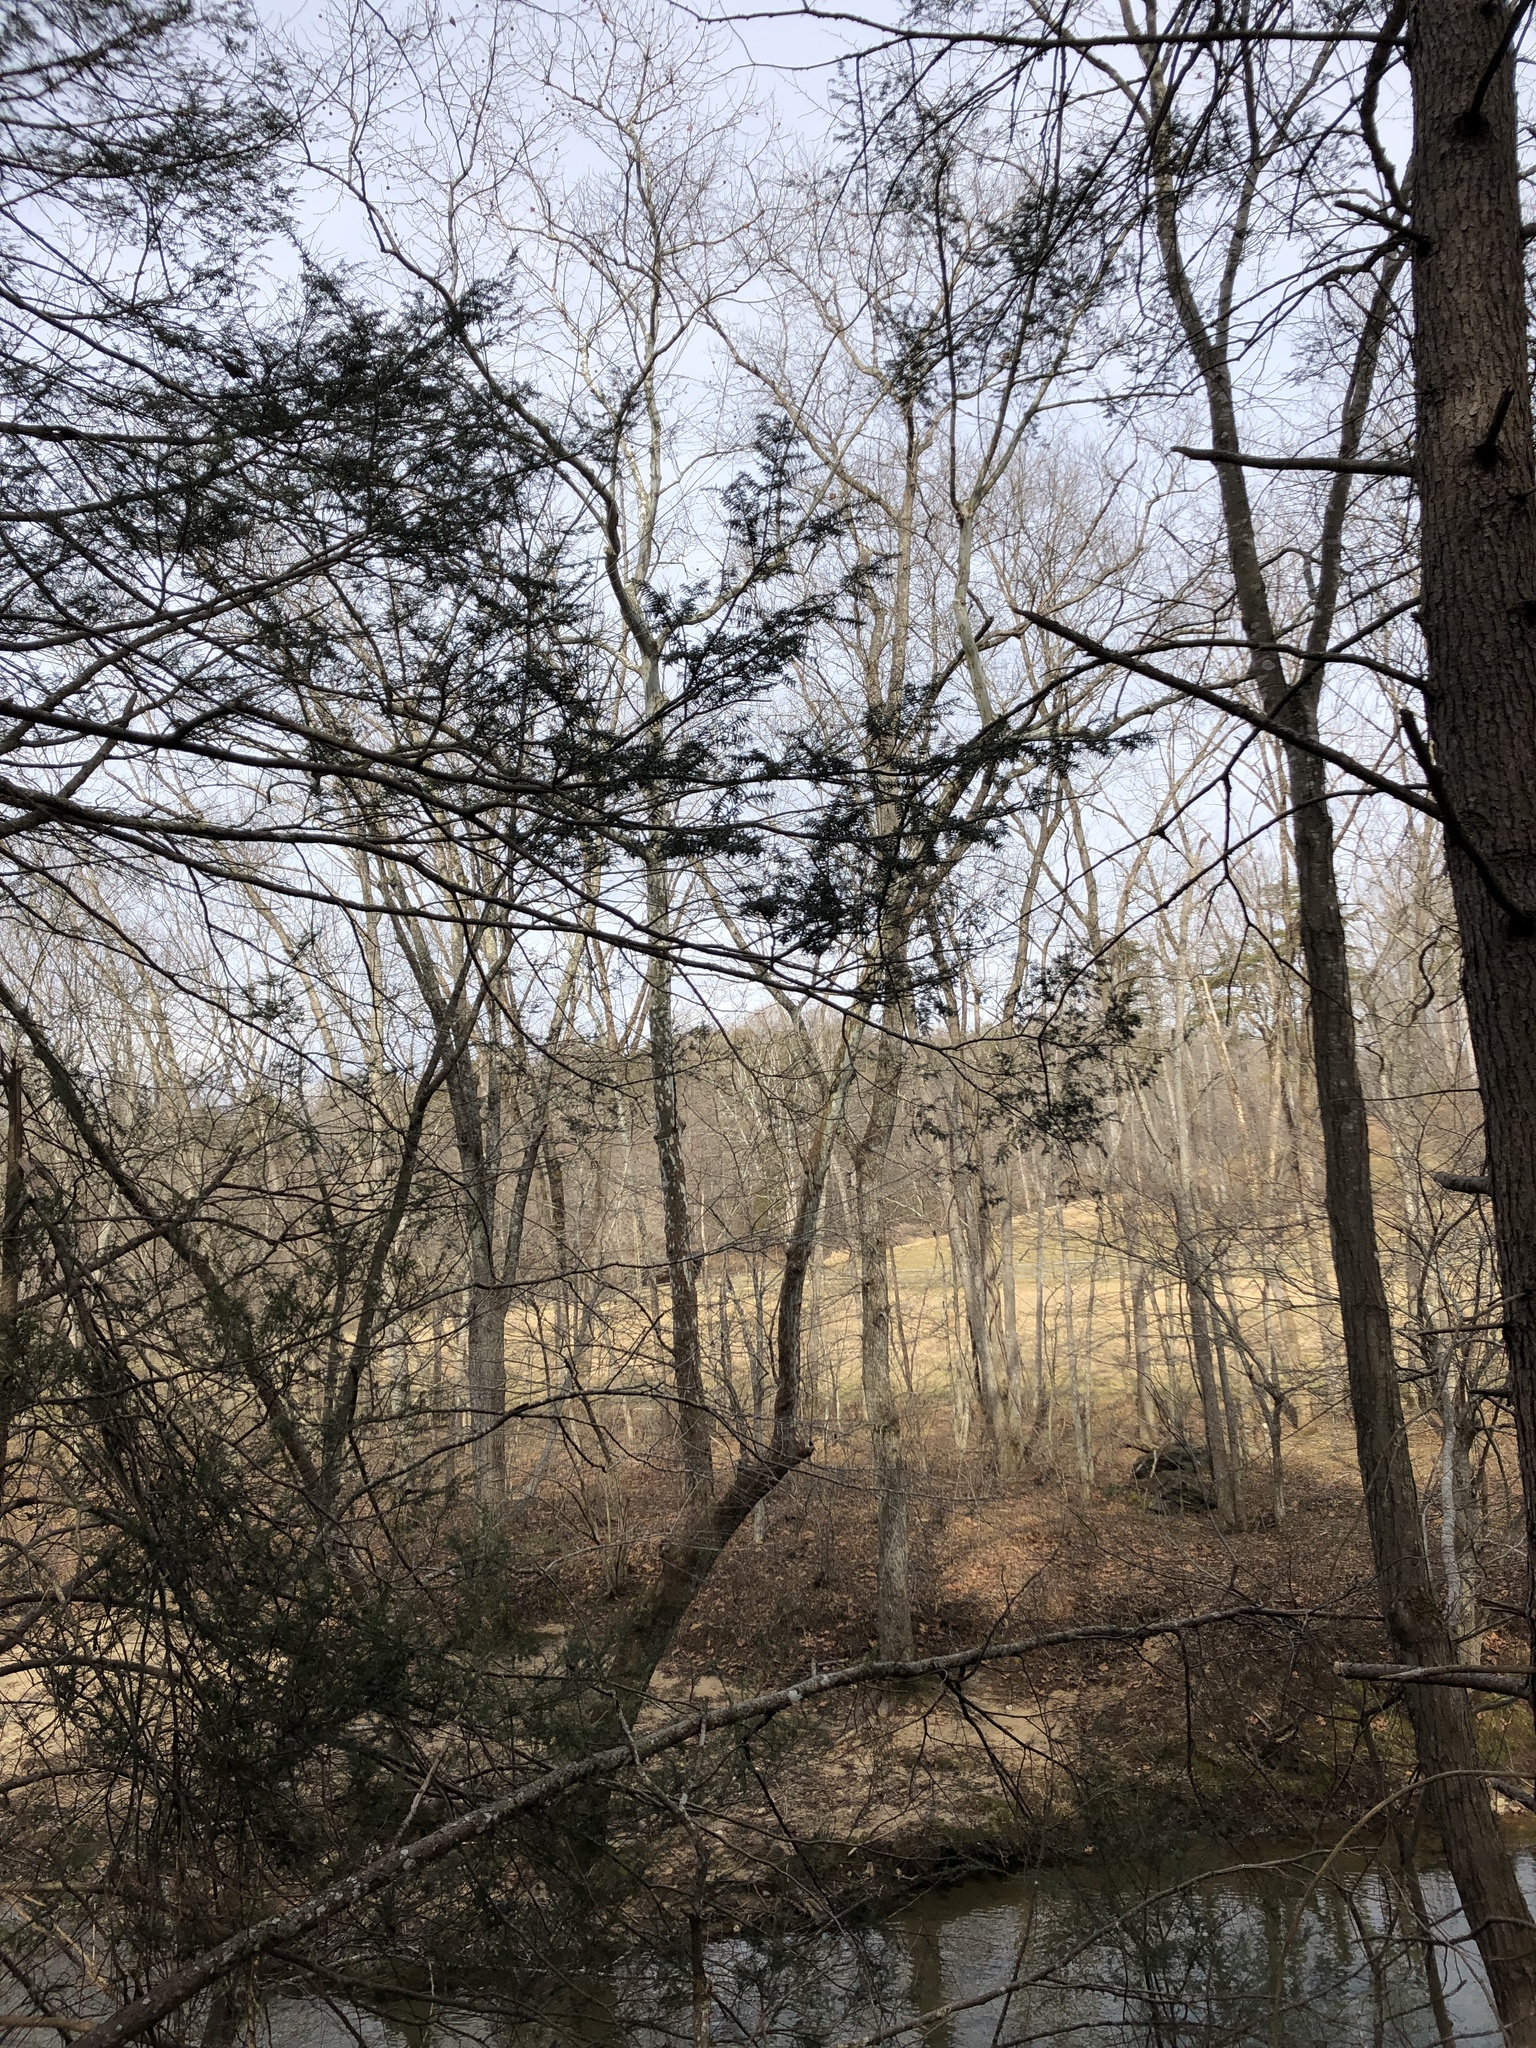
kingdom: Plantae
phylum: Tracheophyta
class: Pinopsida
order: Pinales
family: Pinaceae
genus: Tsuga
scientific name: Tsuga canadensis
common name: Eastern hemlock
